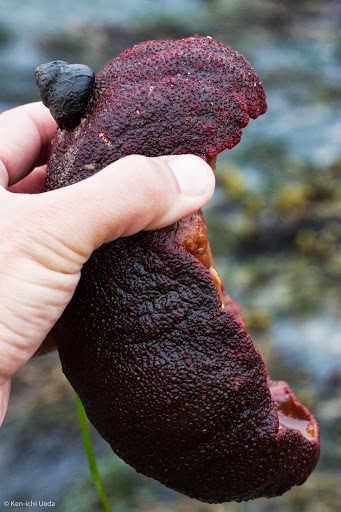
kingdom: Animalia
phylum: Mollusca
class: Polyplacophora
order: Chitonida
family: Acanthochitonidae
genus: Cryptochiton
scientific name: Cryptochiton stelleri
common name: Giant pacific chiton
